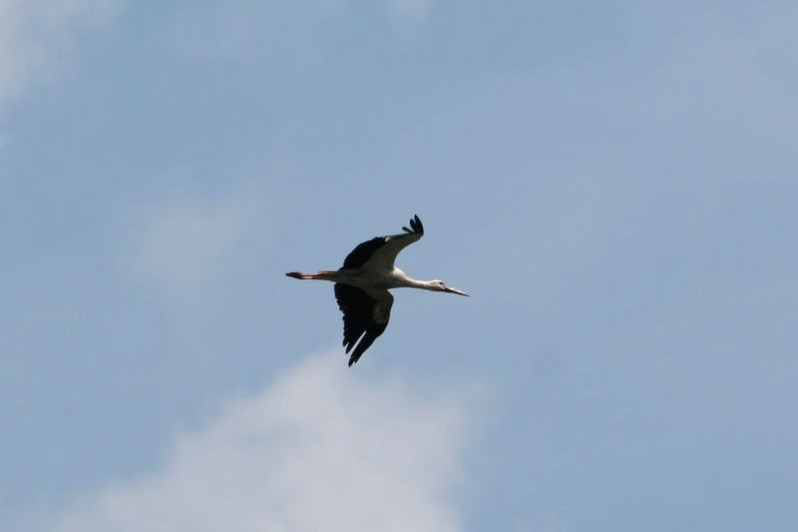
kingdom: Animalia
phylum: Chordata
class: Aves
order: Ciconiiformes
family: Ciconiidae
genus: Ciconia
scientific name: Ciconia ciconia
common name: White stork
